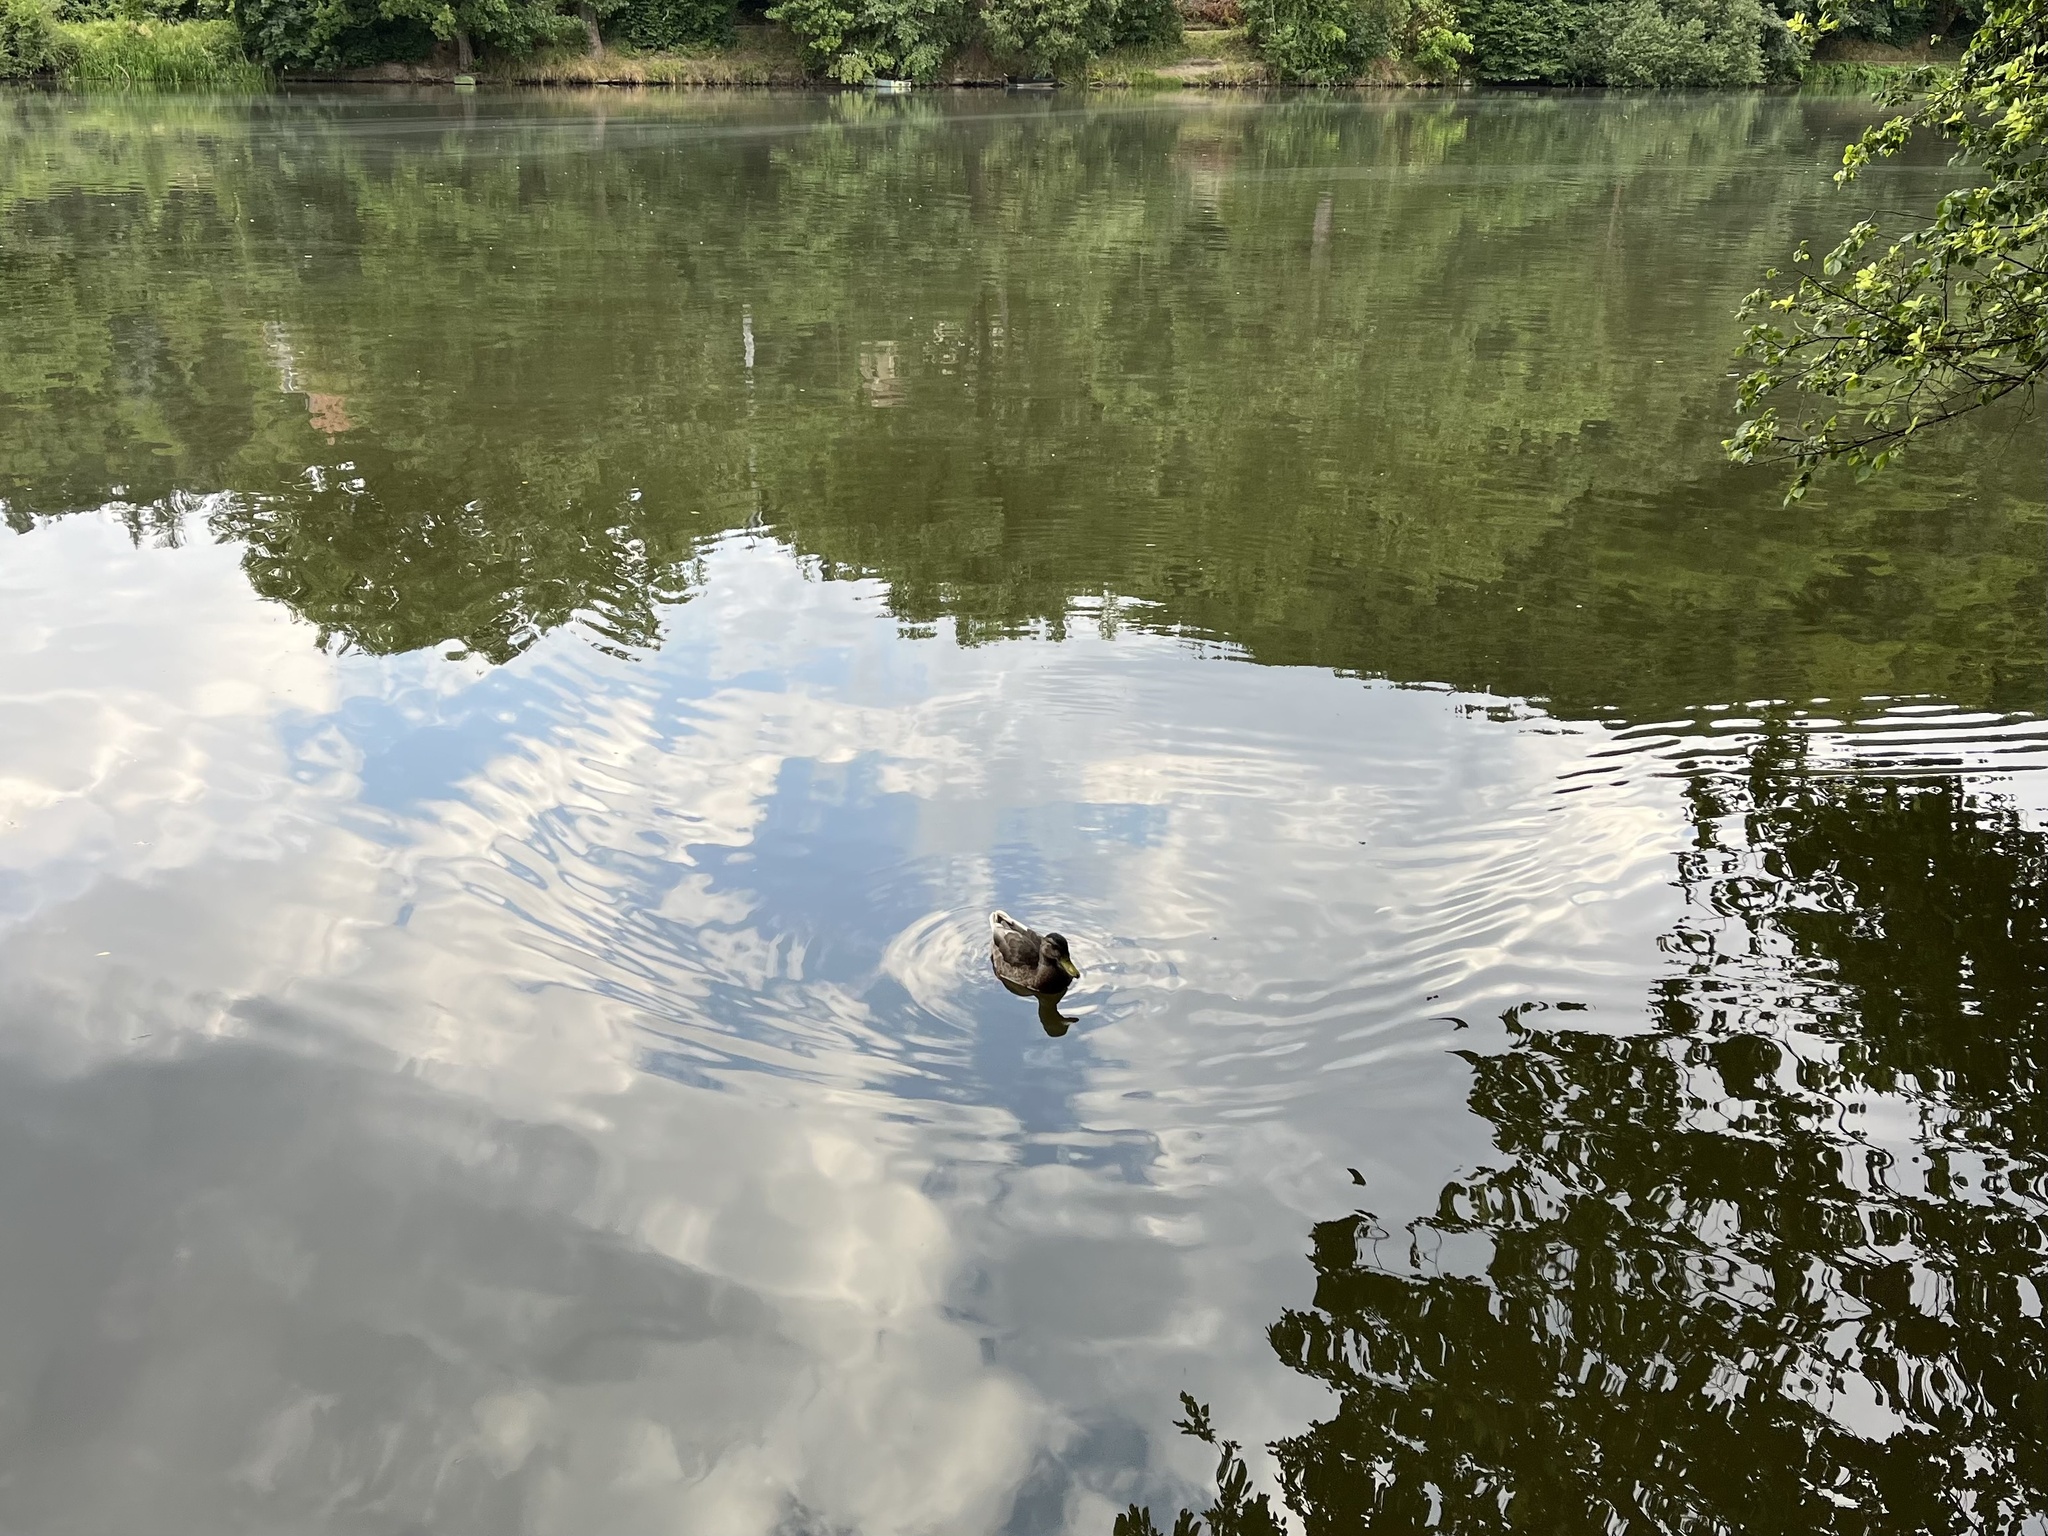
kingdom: Animalia
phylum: Chordata
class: Aves
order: Anseriformes
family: Anatidae
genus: Anas
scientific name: Anas platyrhynchos
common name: Mallard
